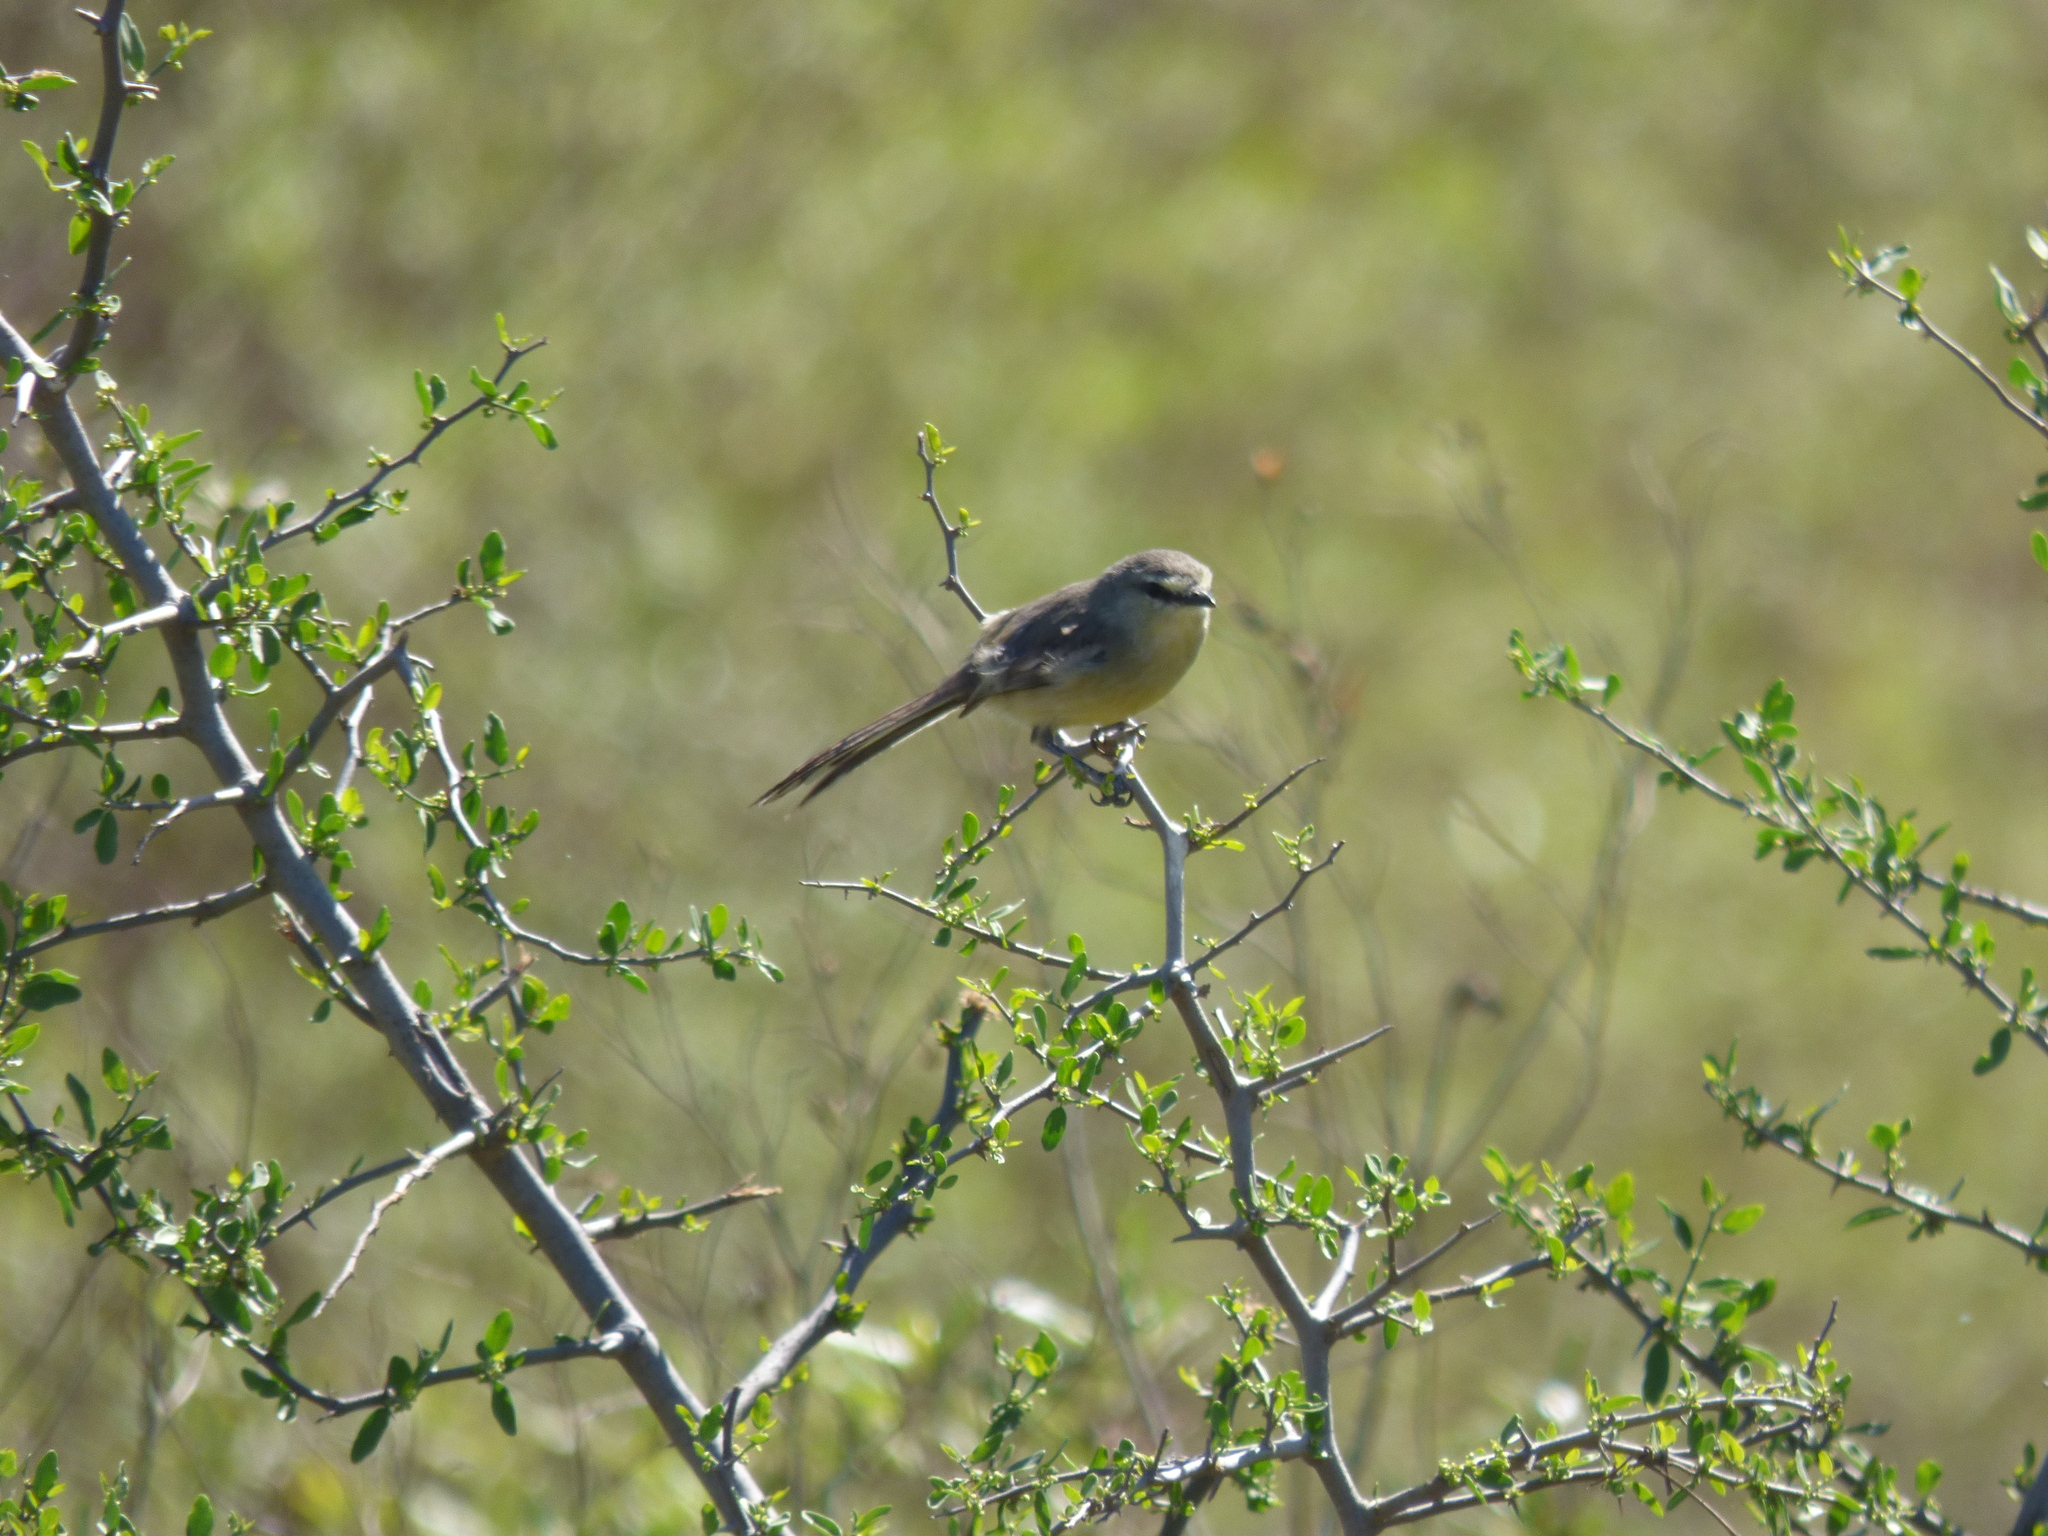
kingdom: Animalia
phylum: Chordata
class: Aves
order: Passeriformes
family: Tyrannidae
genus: Stigmatura
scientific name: Stigmatura budytoides
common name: Greater wagtail-tyrant
